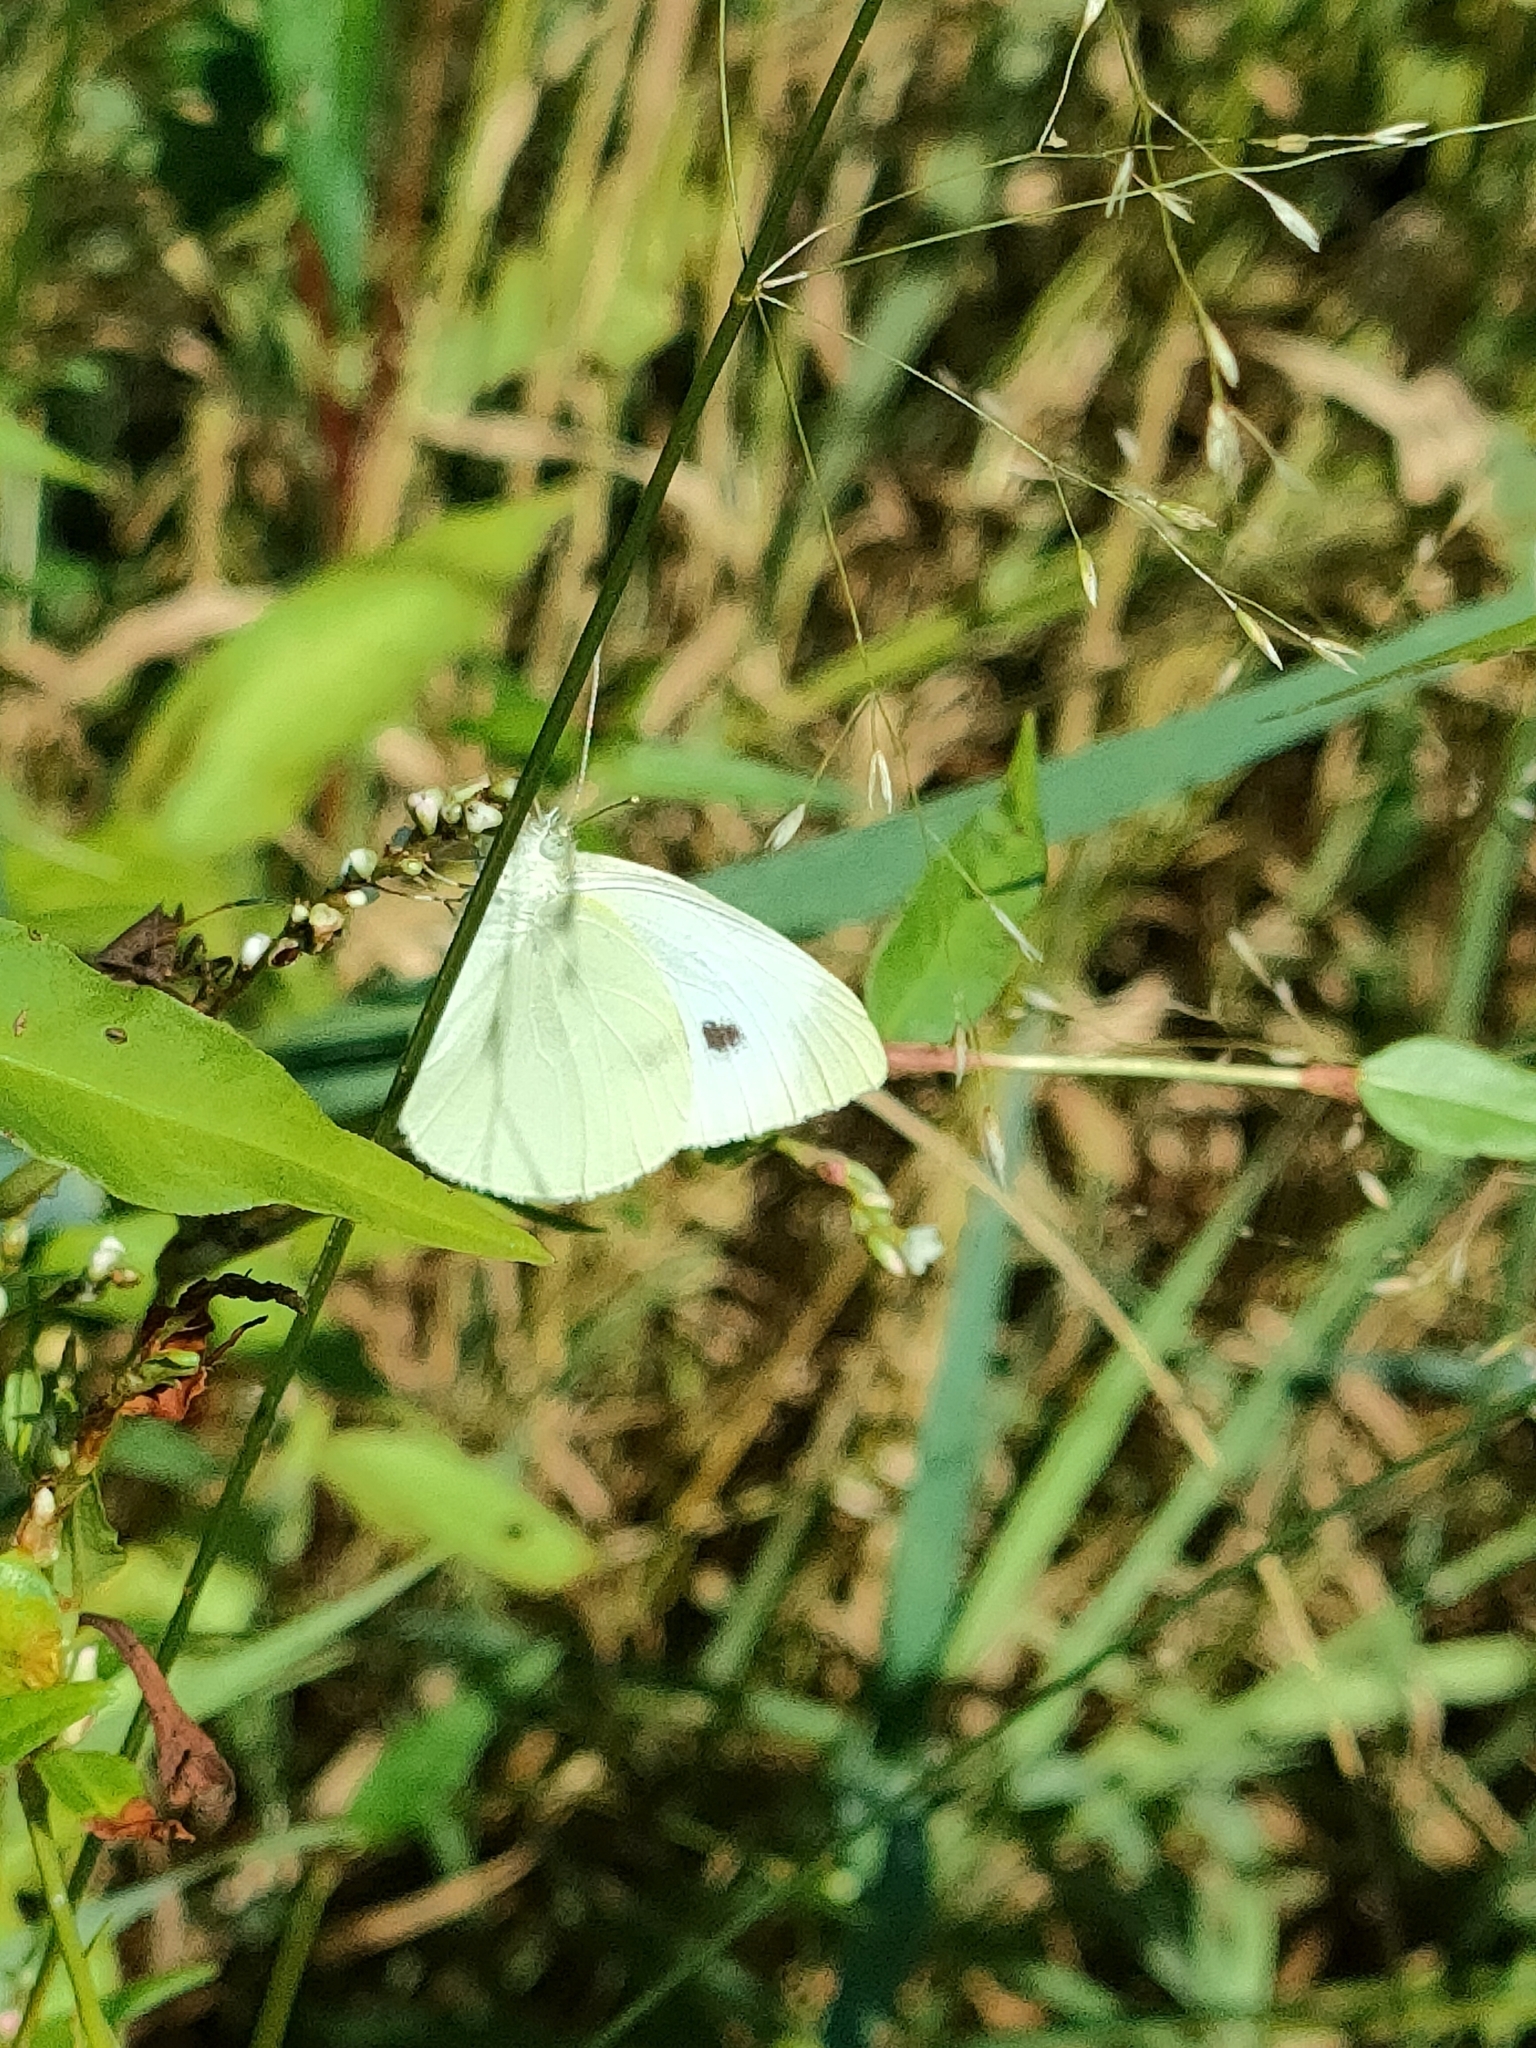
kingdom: Animalia
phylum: Arthropoda
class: Insecta
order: Lepidoptera
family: Pieridae
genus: Pieris
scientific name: Pieris rapae
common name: Small white
